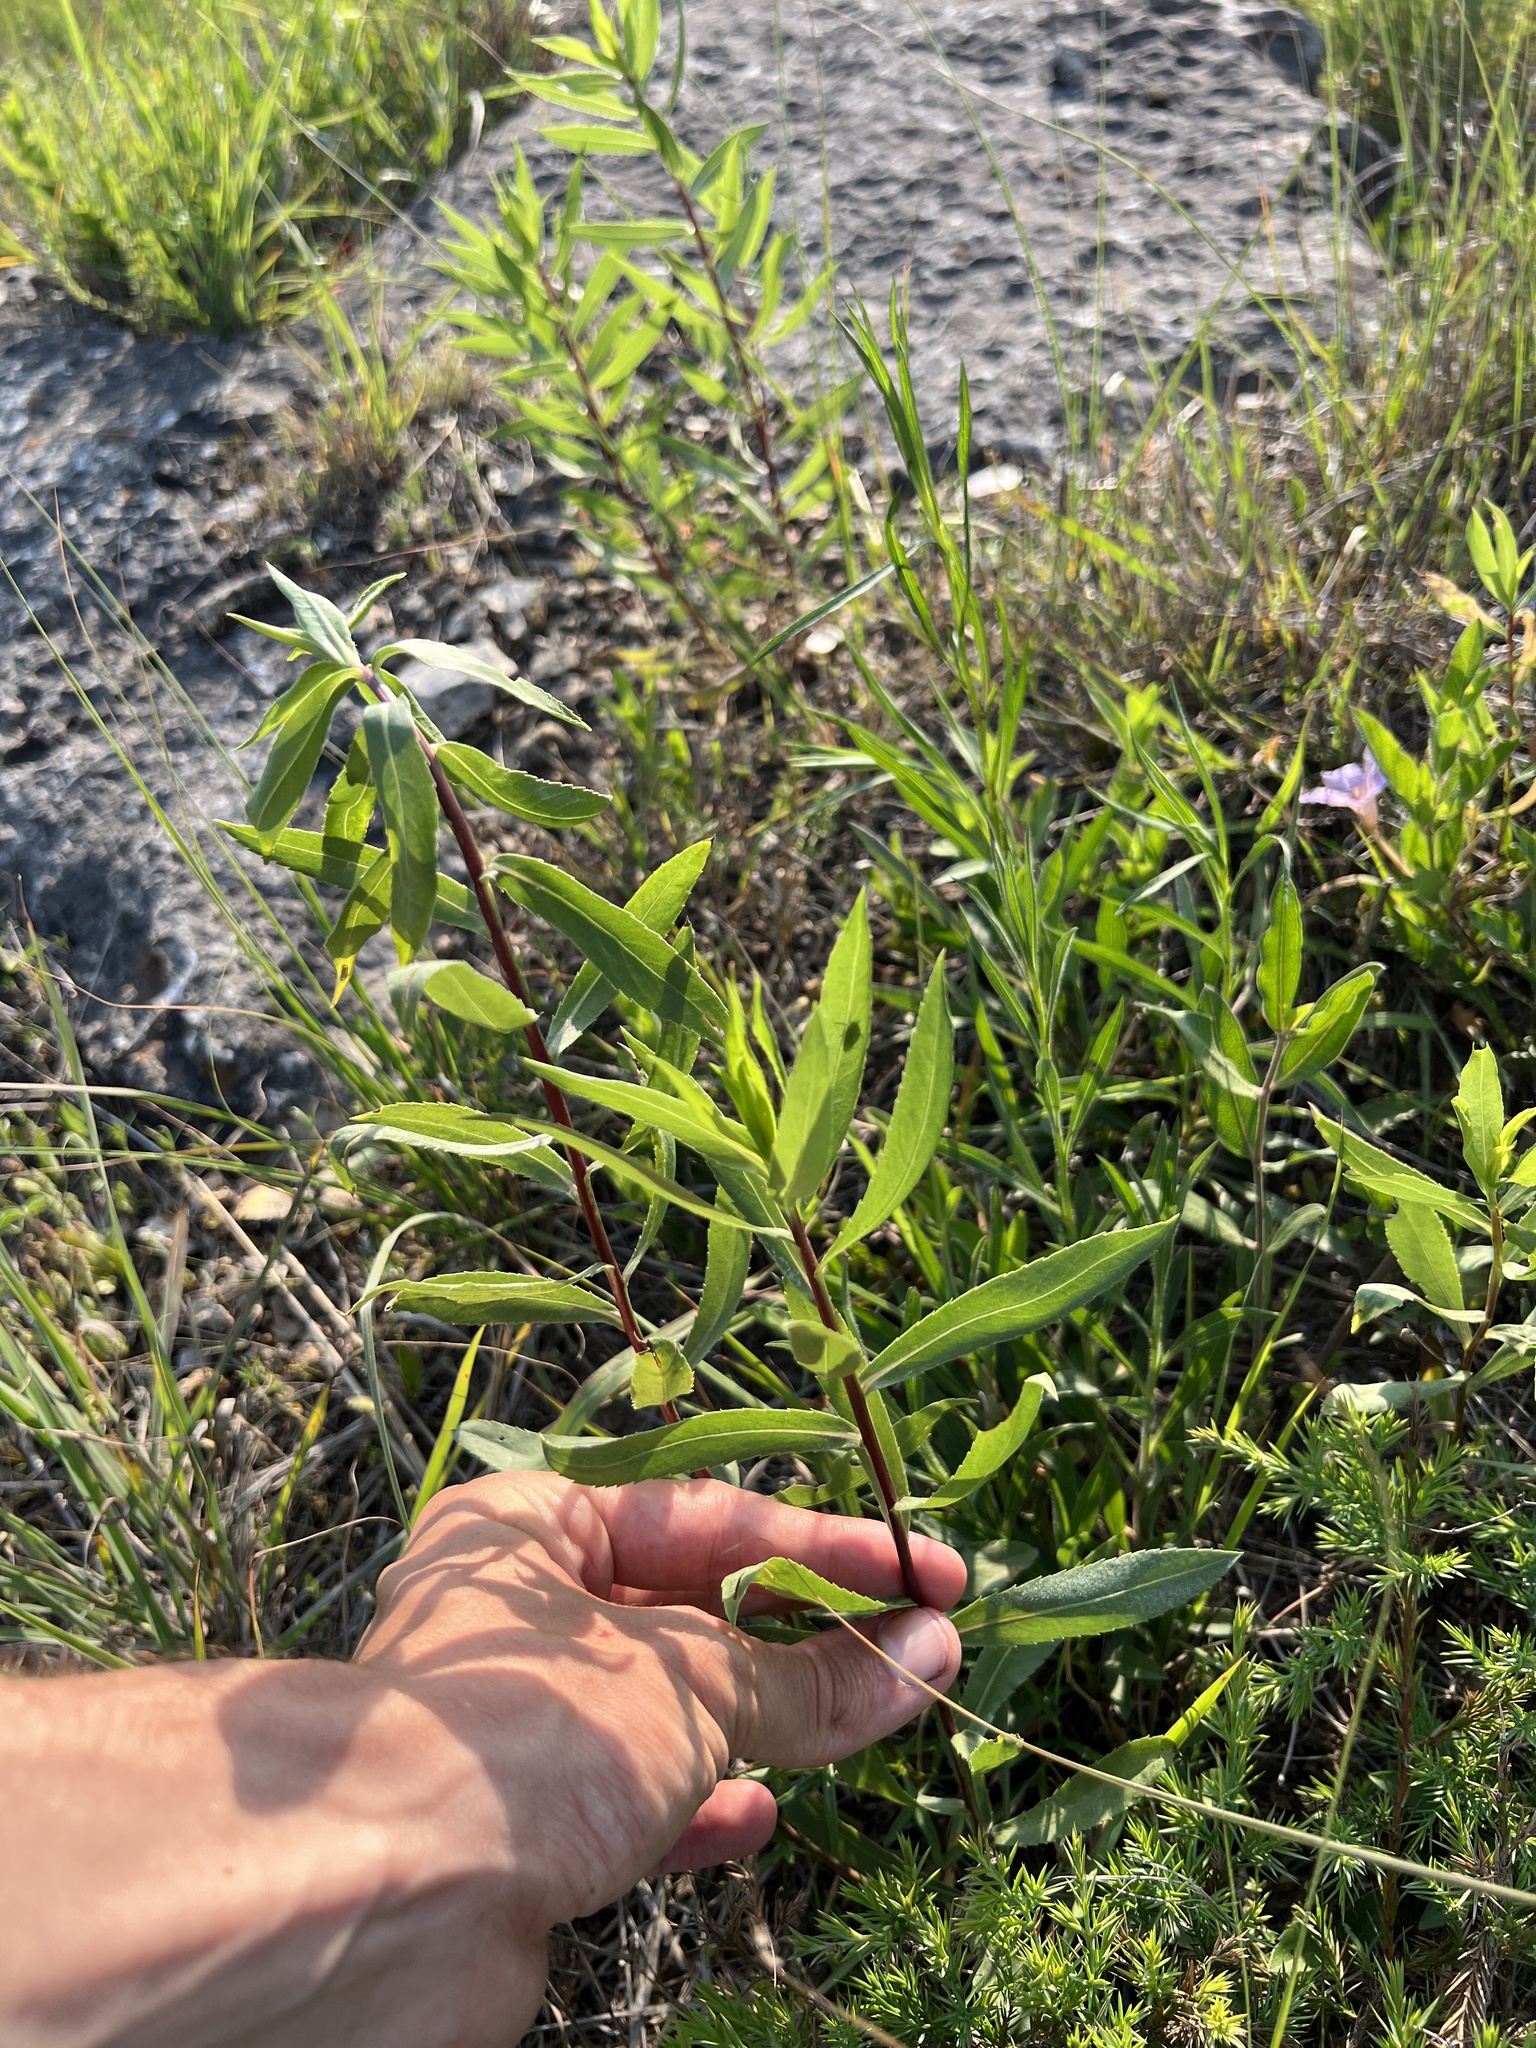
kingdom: Plantae
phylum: Tracheophyta
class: Magnoliopsida
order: Asterales
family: Asteraceae
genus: Grindelia
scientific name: Grindelia lanceolata
